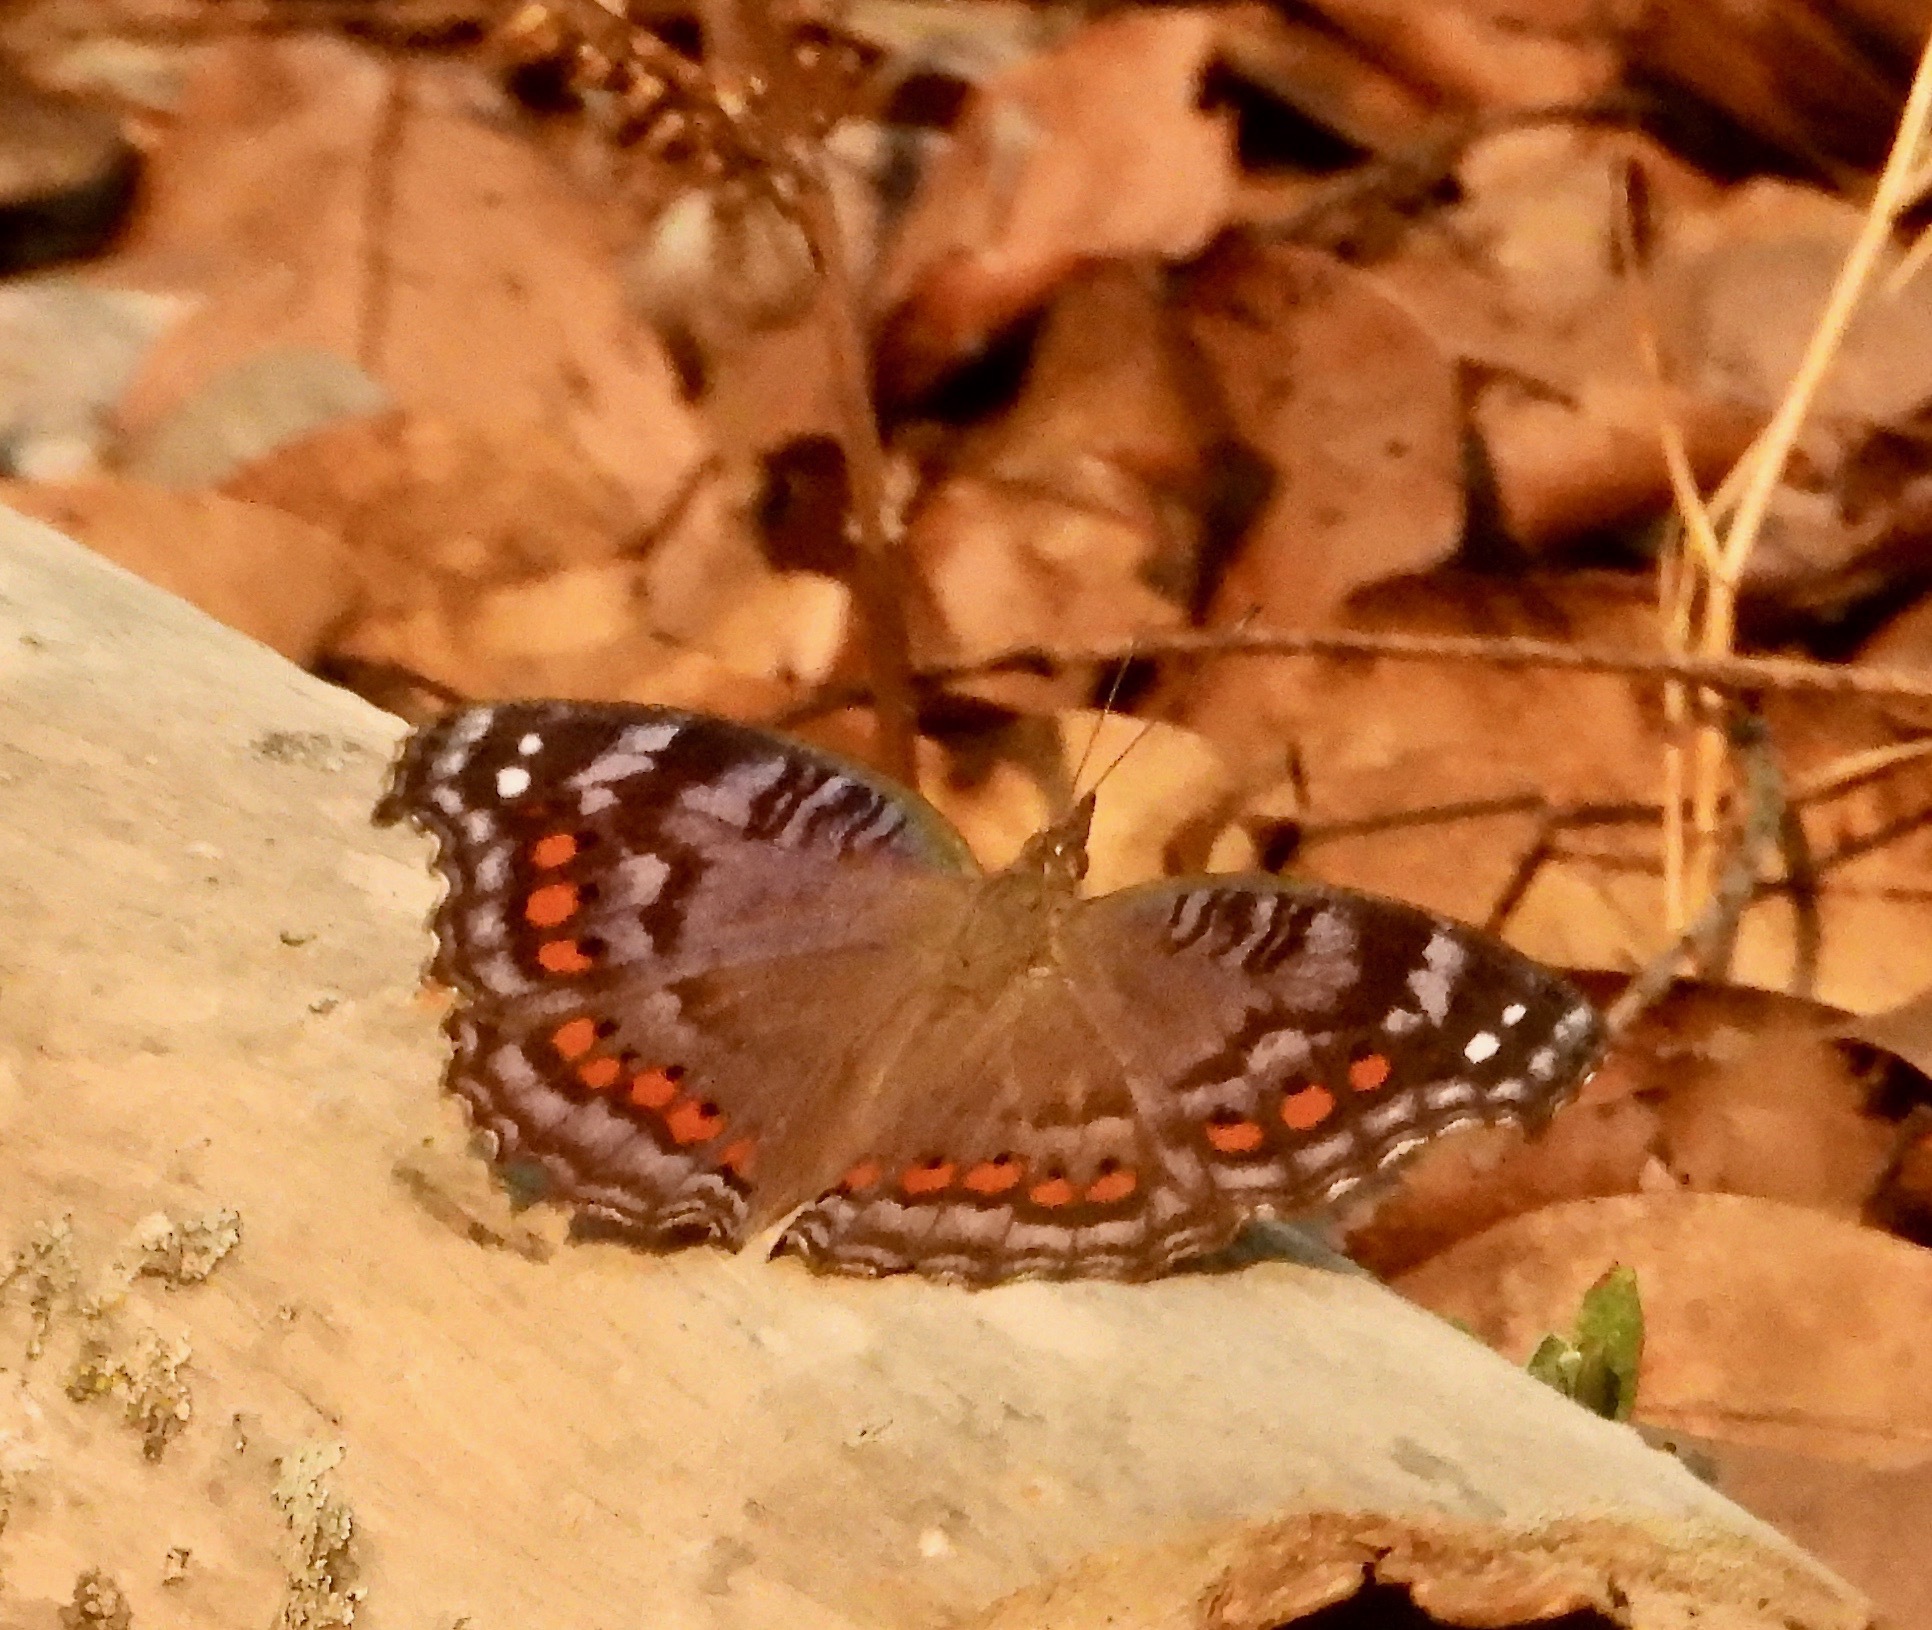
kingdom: Animalia
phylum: Arthropoda
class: Insecta
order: Lepidoptera
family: Nymphalidae
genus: Precis
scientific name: Precis octavia
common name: Gaudy commodore
